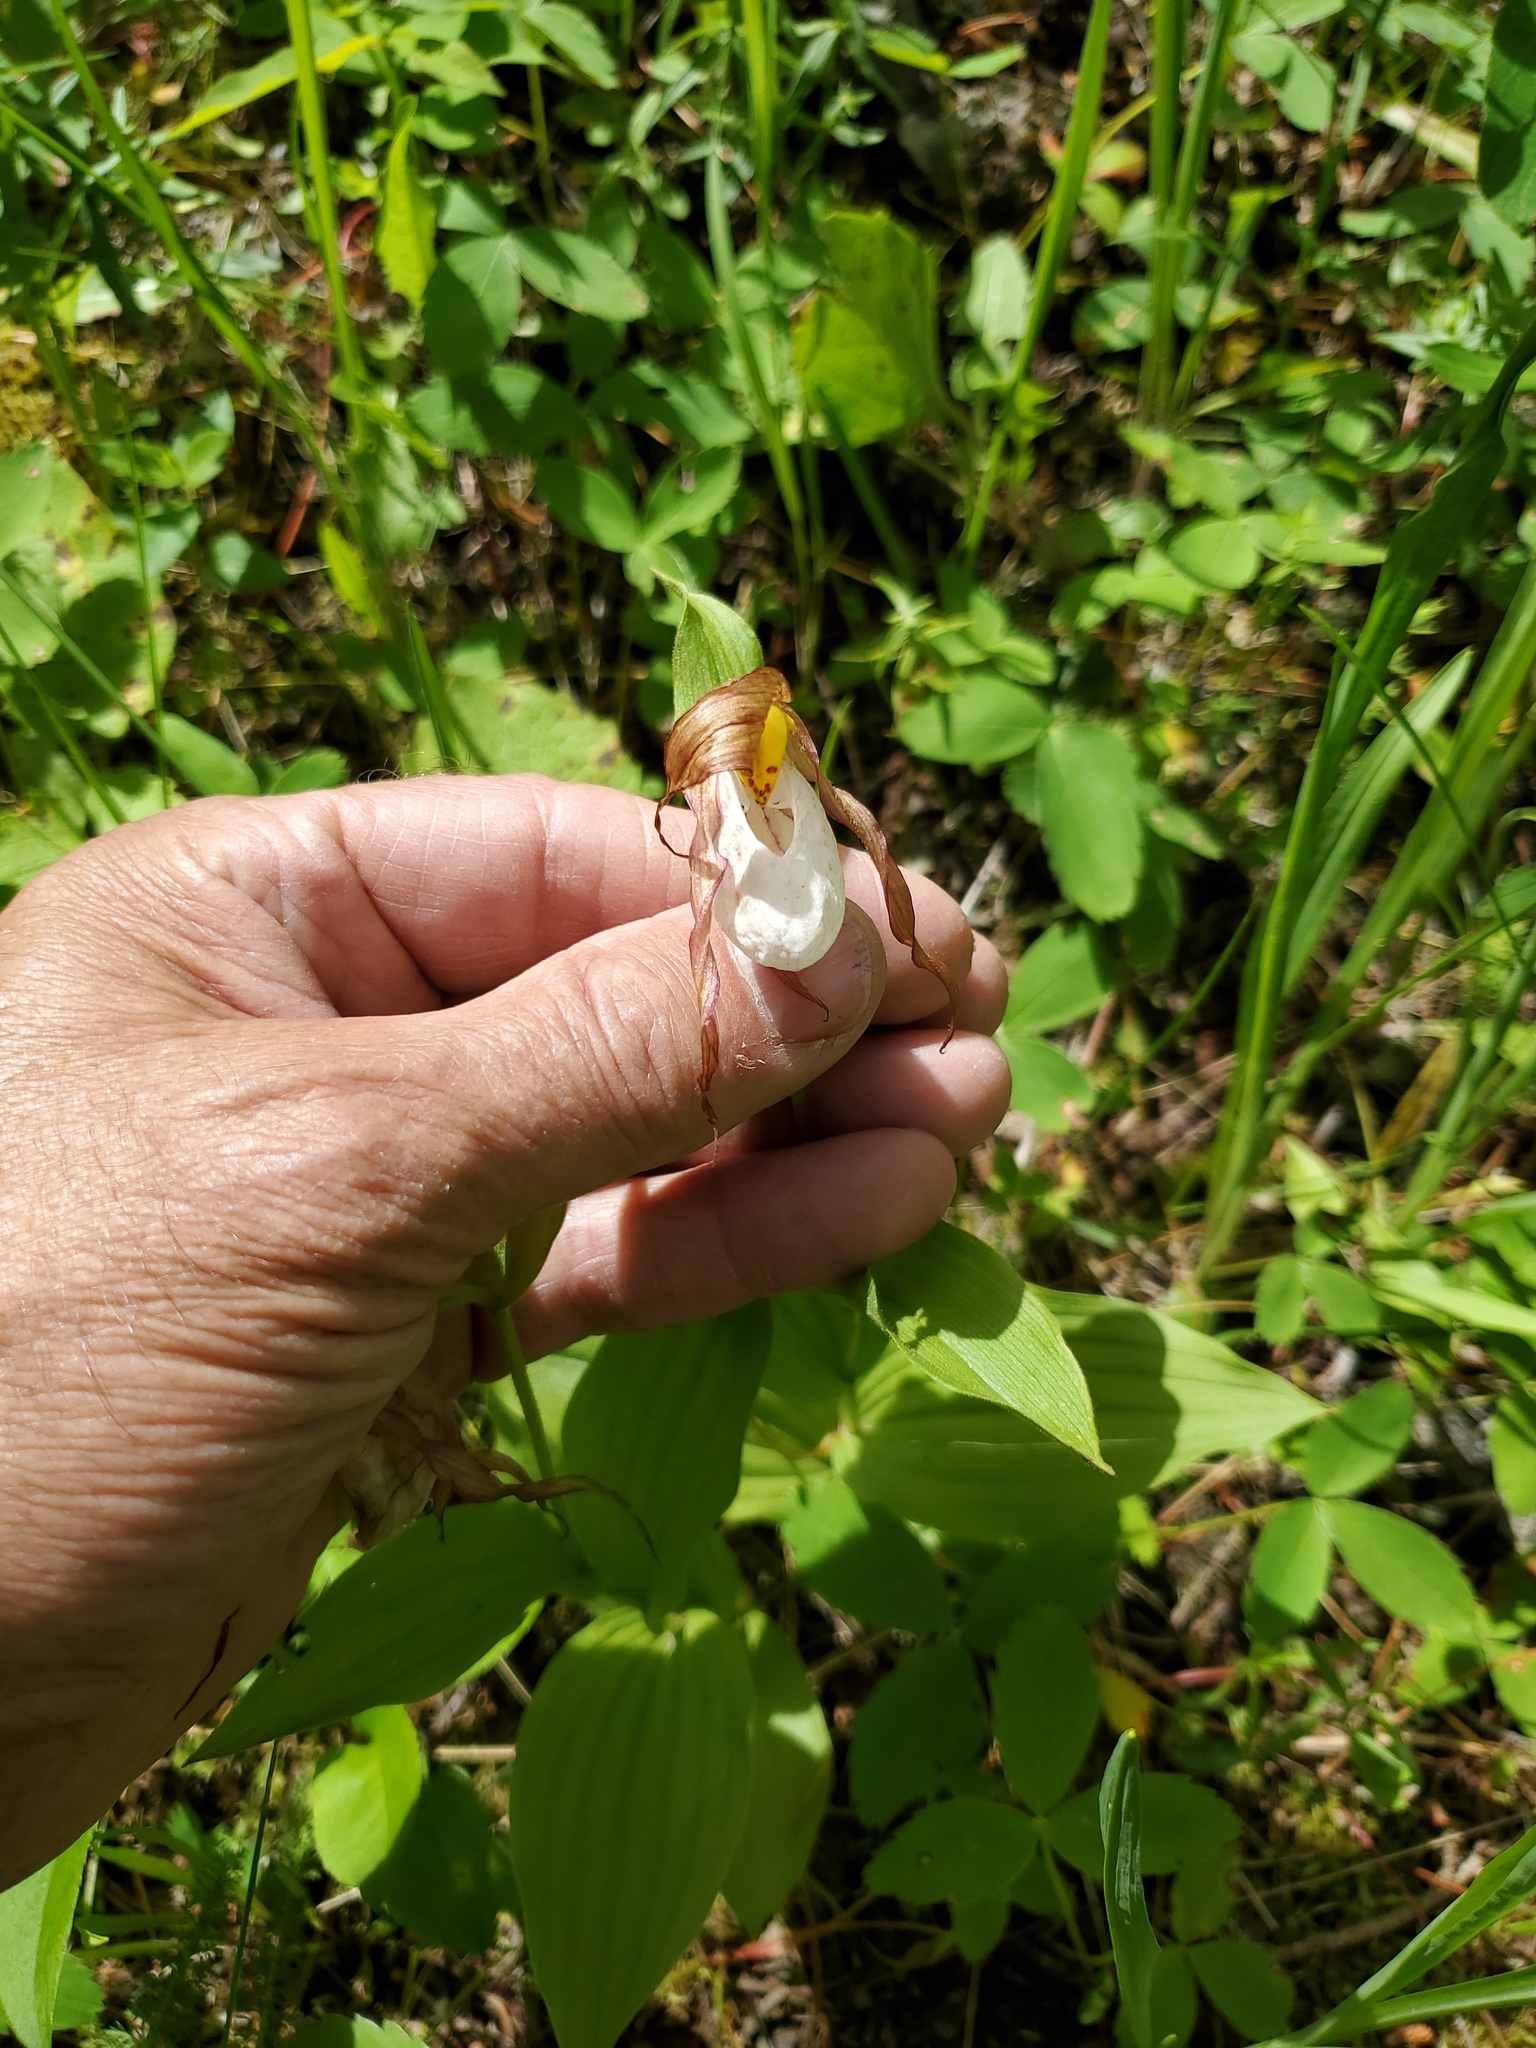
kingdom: Plantae
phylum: Tracheophyta
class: Liliopsida
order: Asparagales
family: Orchidaceae
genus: Cypripedium
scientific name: Cypripedium montanum
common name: Mountain lady's-slipper
